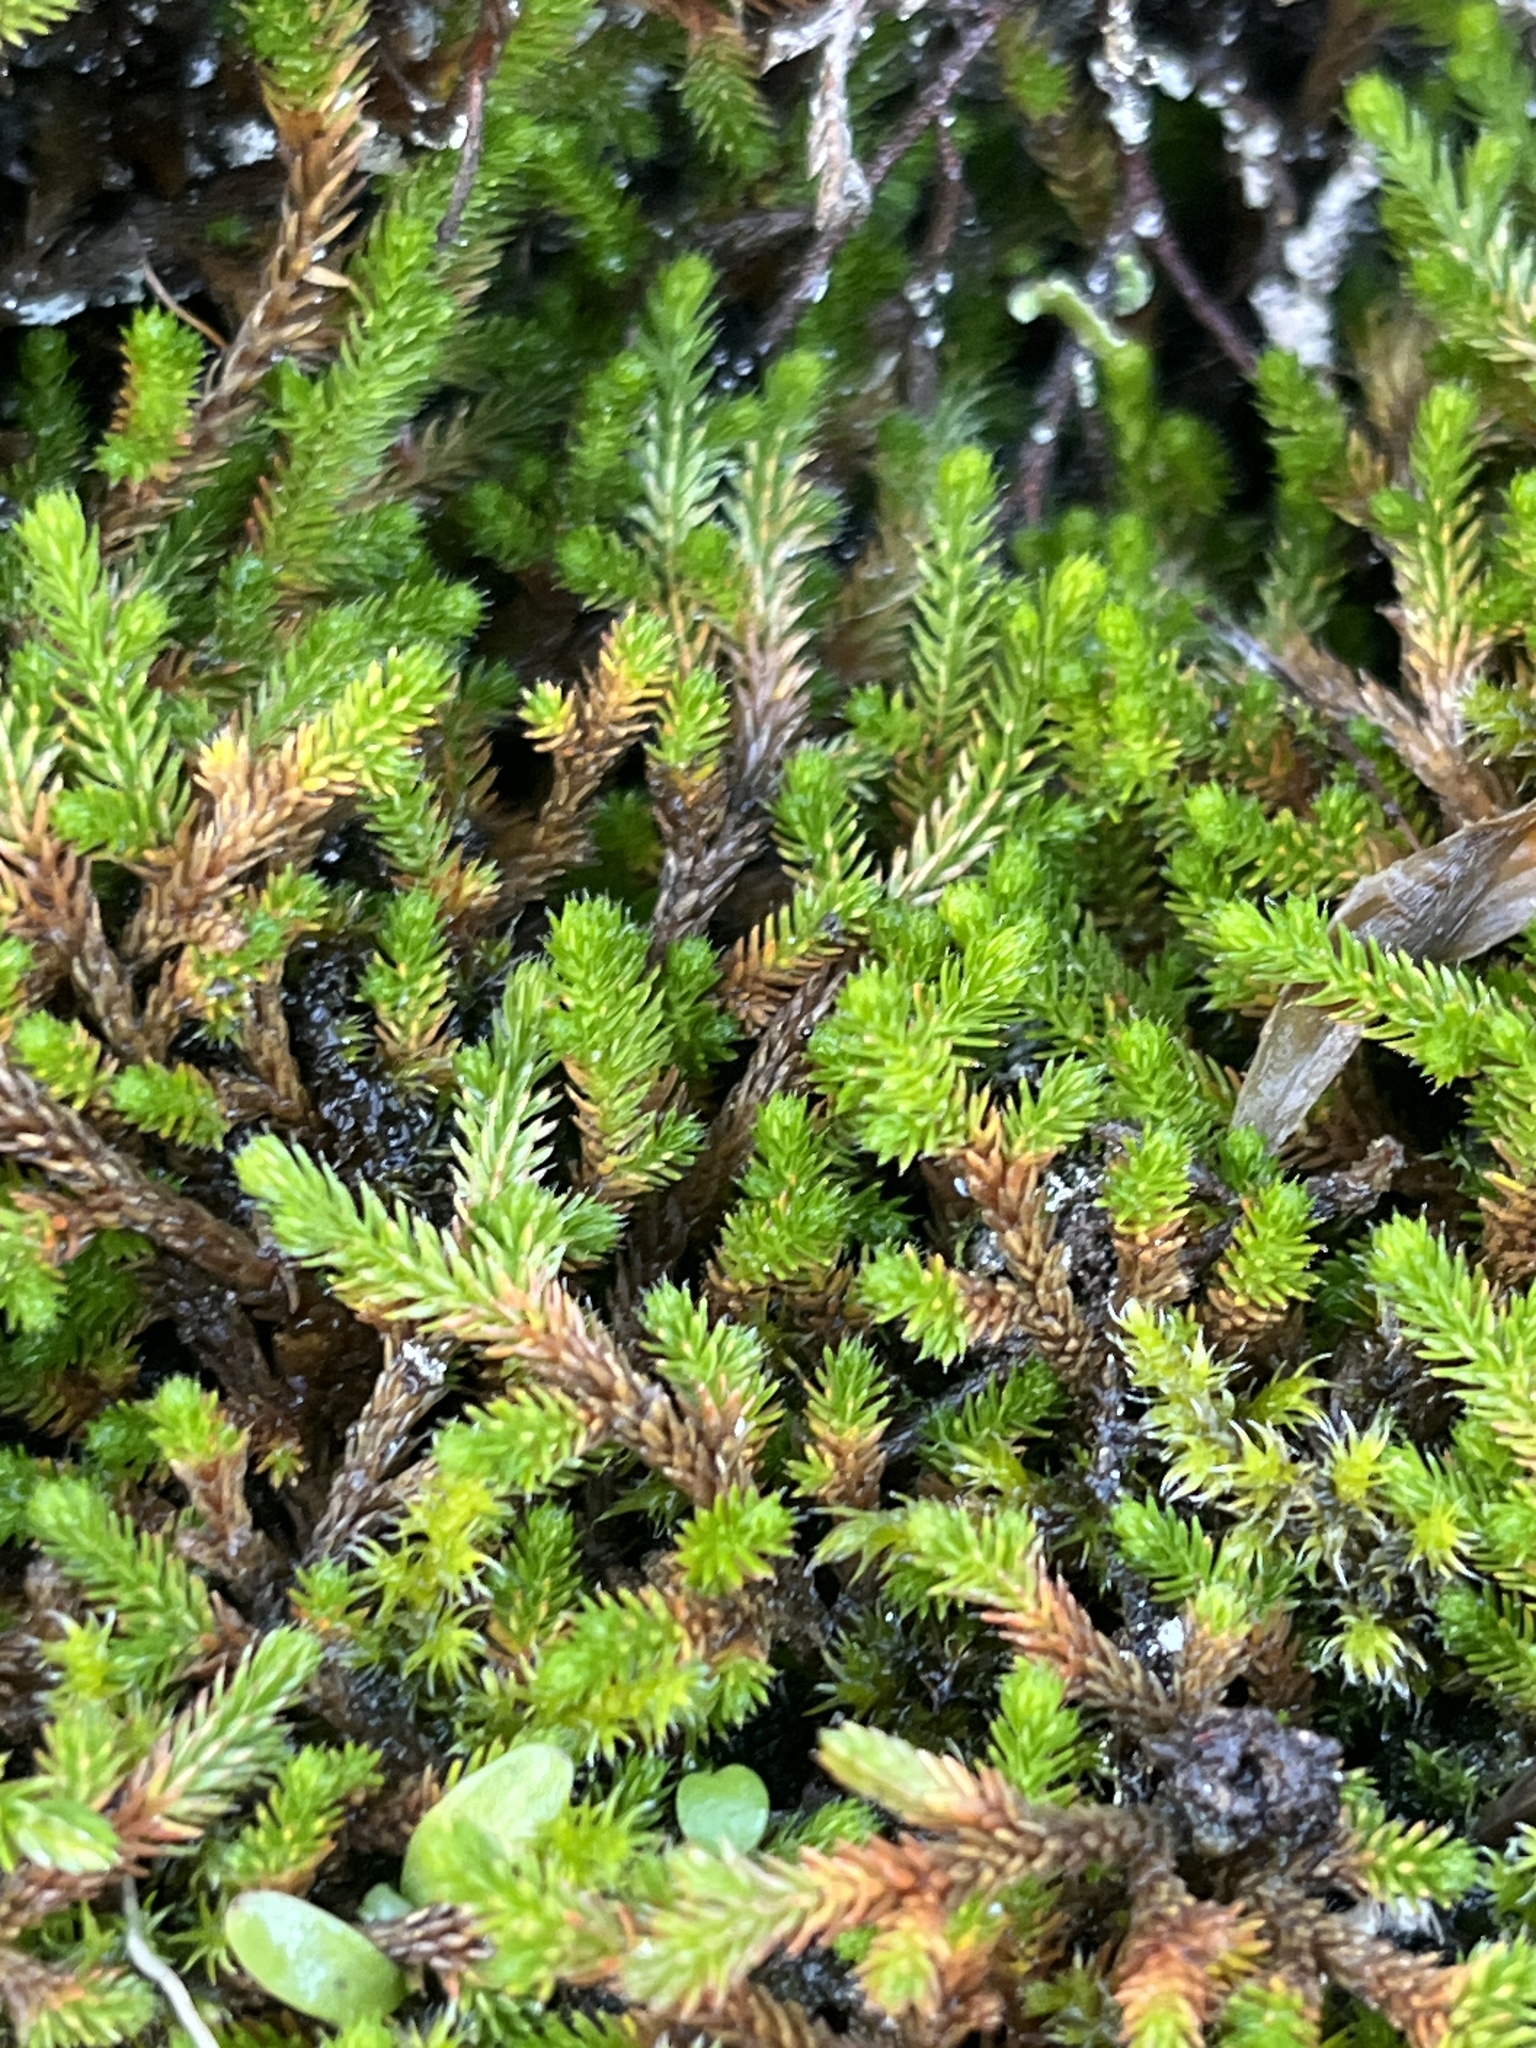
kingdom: Plantae
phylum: Tracheophyta
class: Lycopodiopsida
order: Selaginellales
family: Selaginellaceae
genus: Selaginella
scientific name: Selaginella wallacei
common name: Wallace's selaginella
